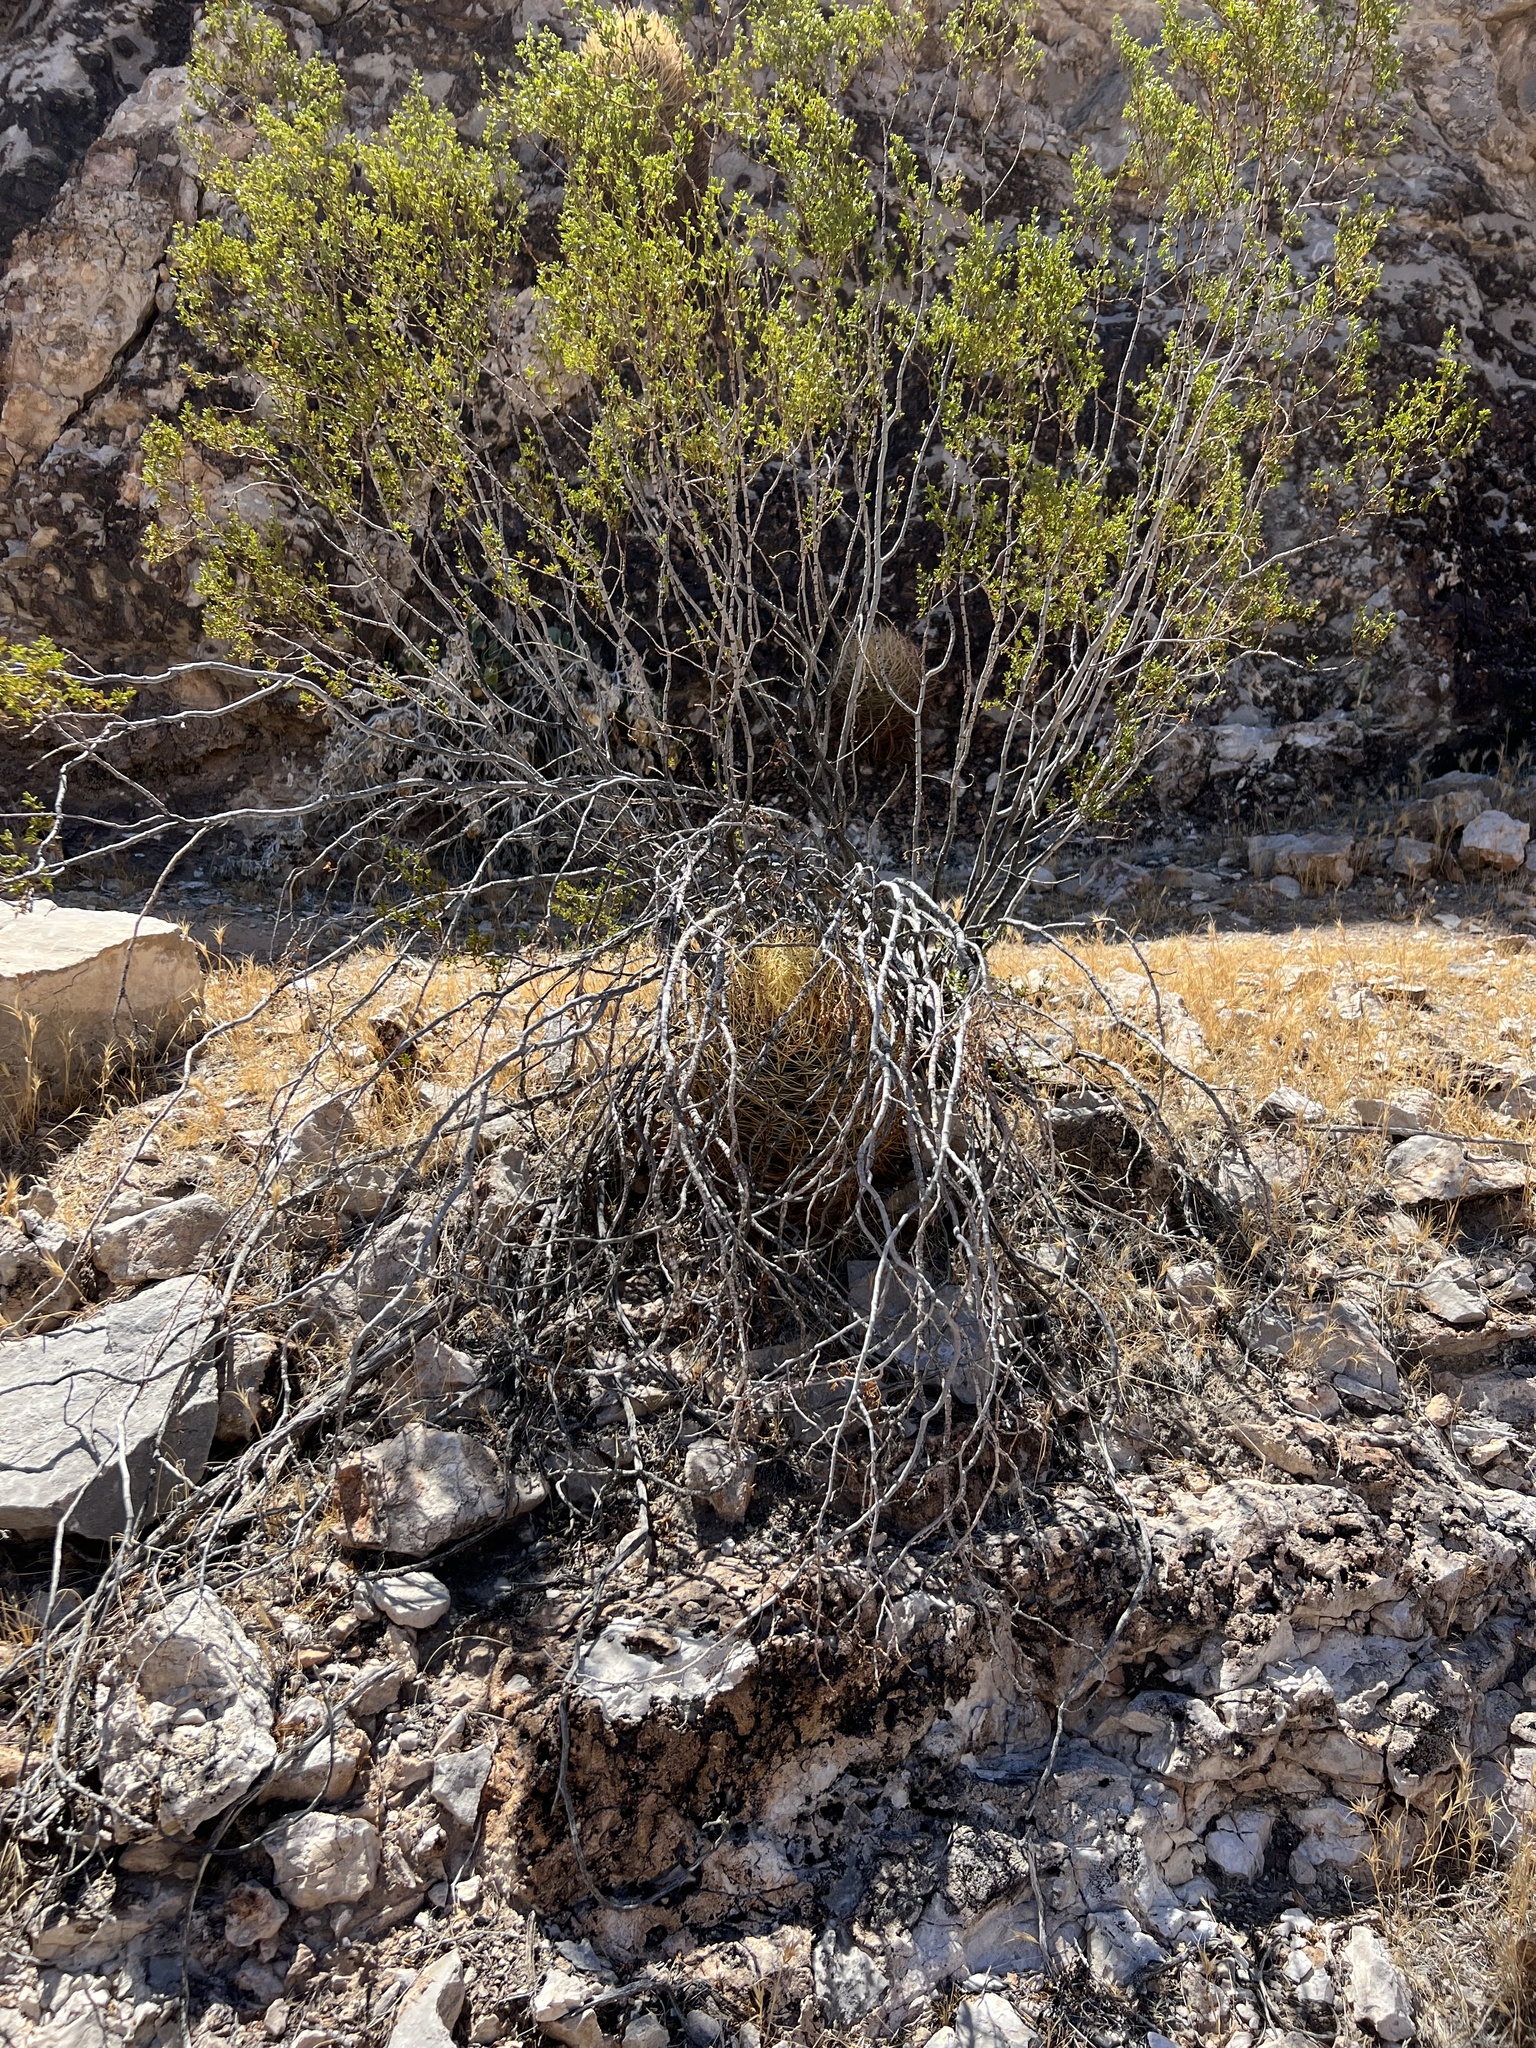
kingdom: Plantae
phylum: Tracheophyta
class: Magnoliopsida
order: Zygophyllales
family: Zygophyllaceae
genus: Larrea
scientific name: Larrea tridentata
